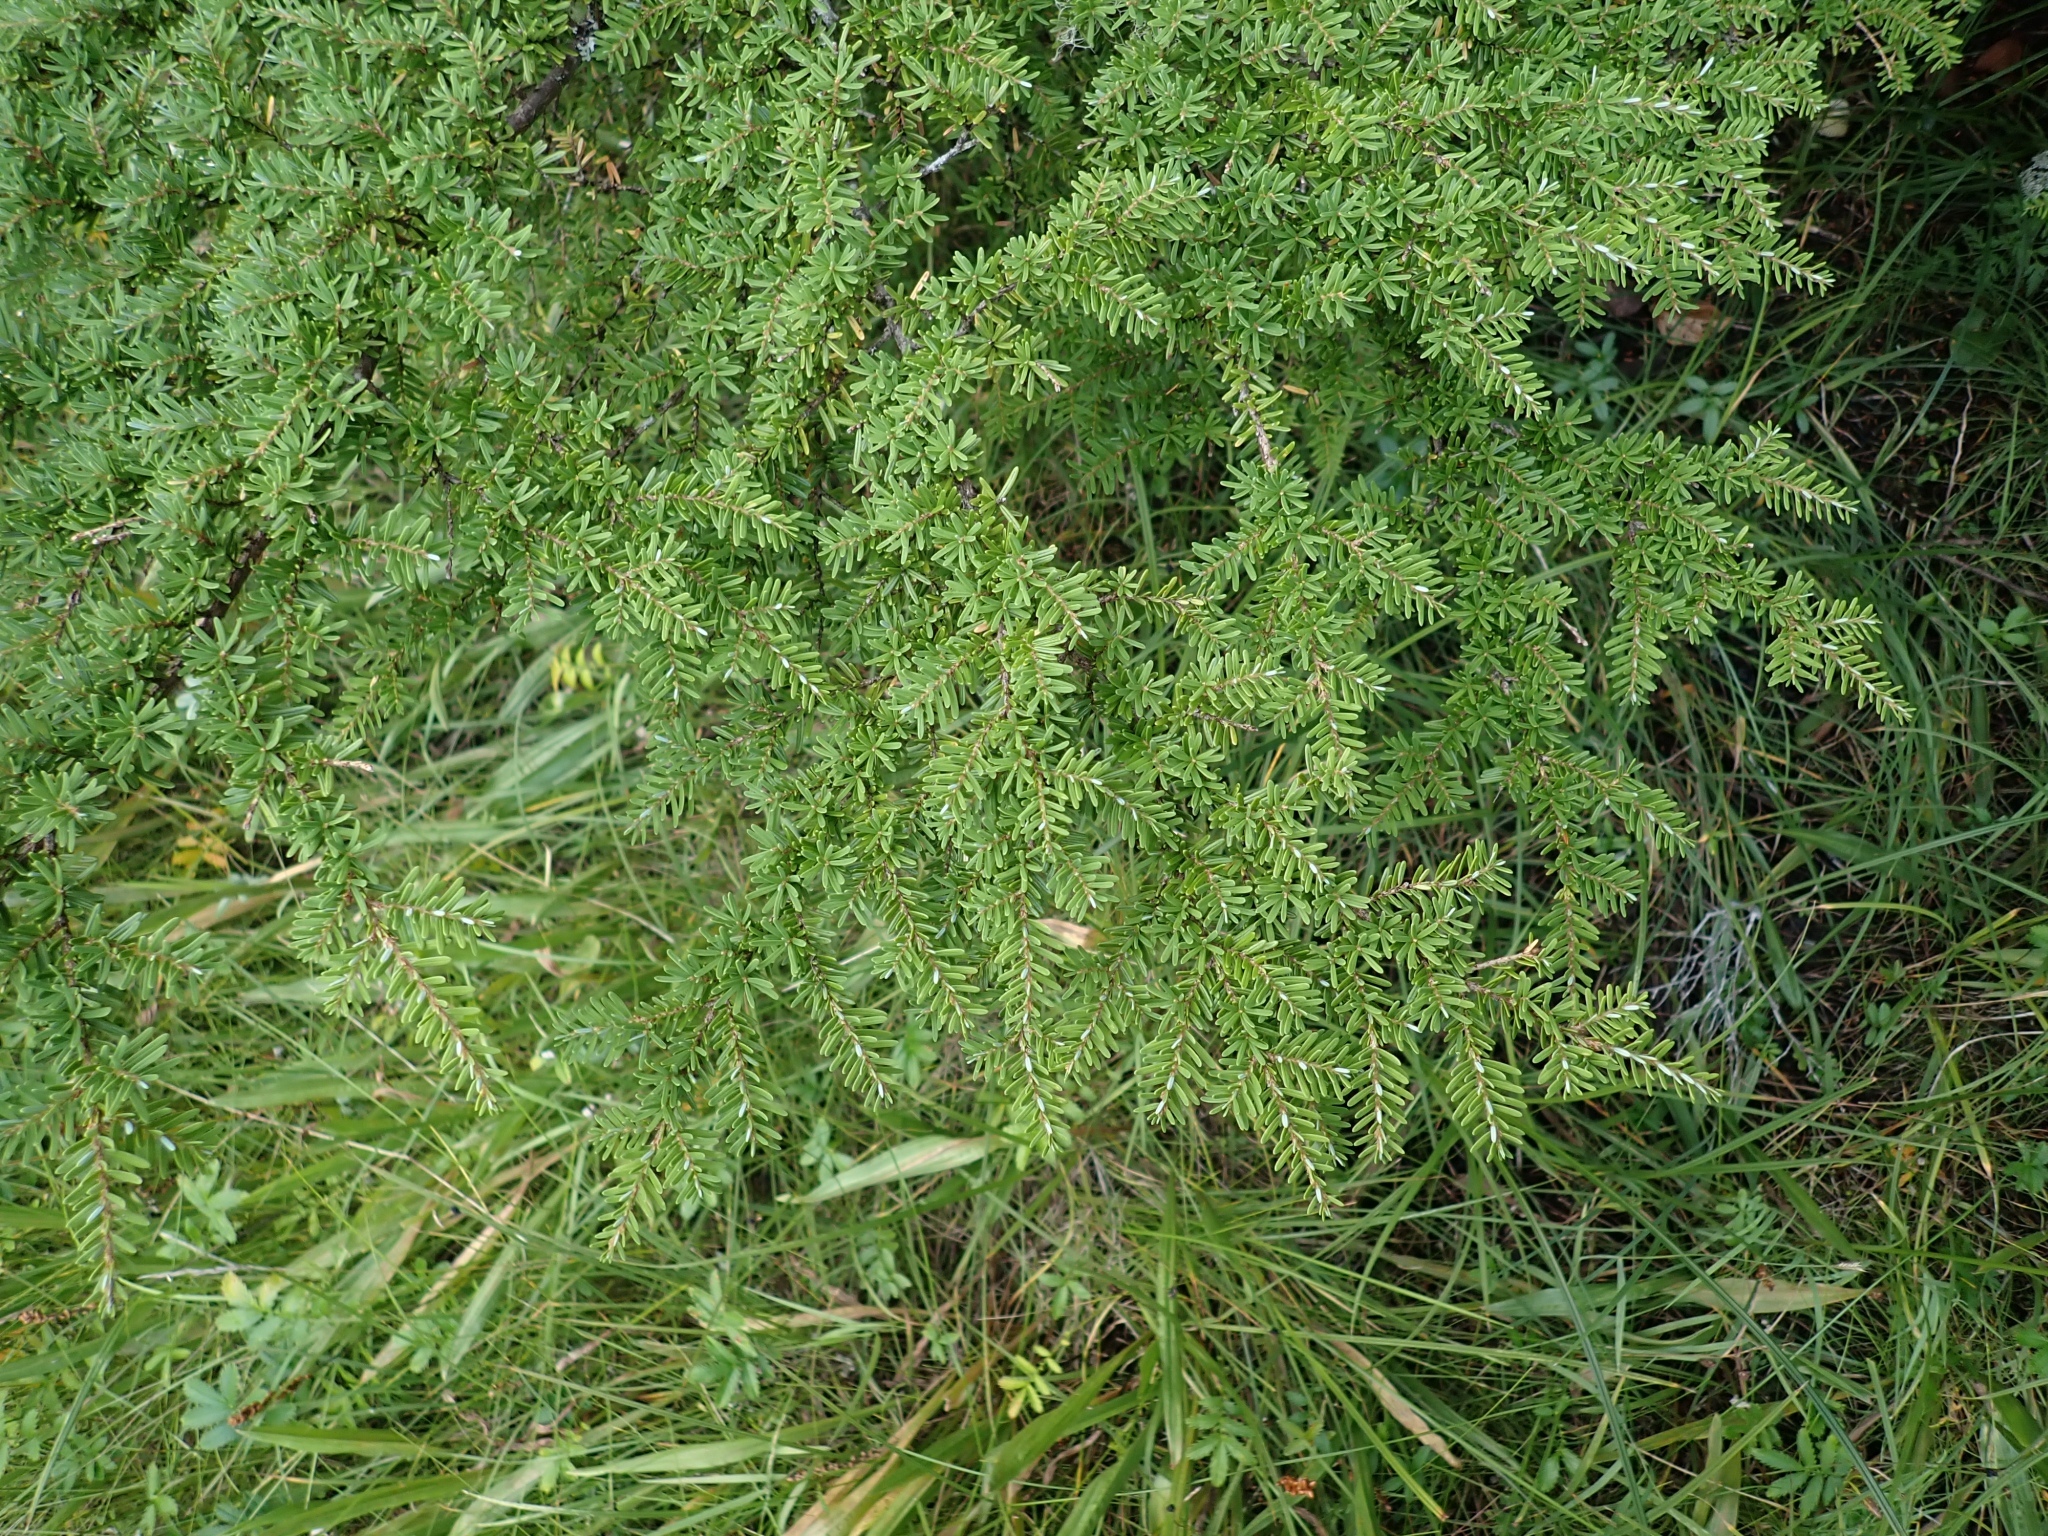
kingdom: Plantae
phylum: Tracheophyta
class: Pinopsida
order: Pinales
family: Pinaceae
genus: Tsuga
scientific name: Tsuga heterophylla
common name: Western hemlock
